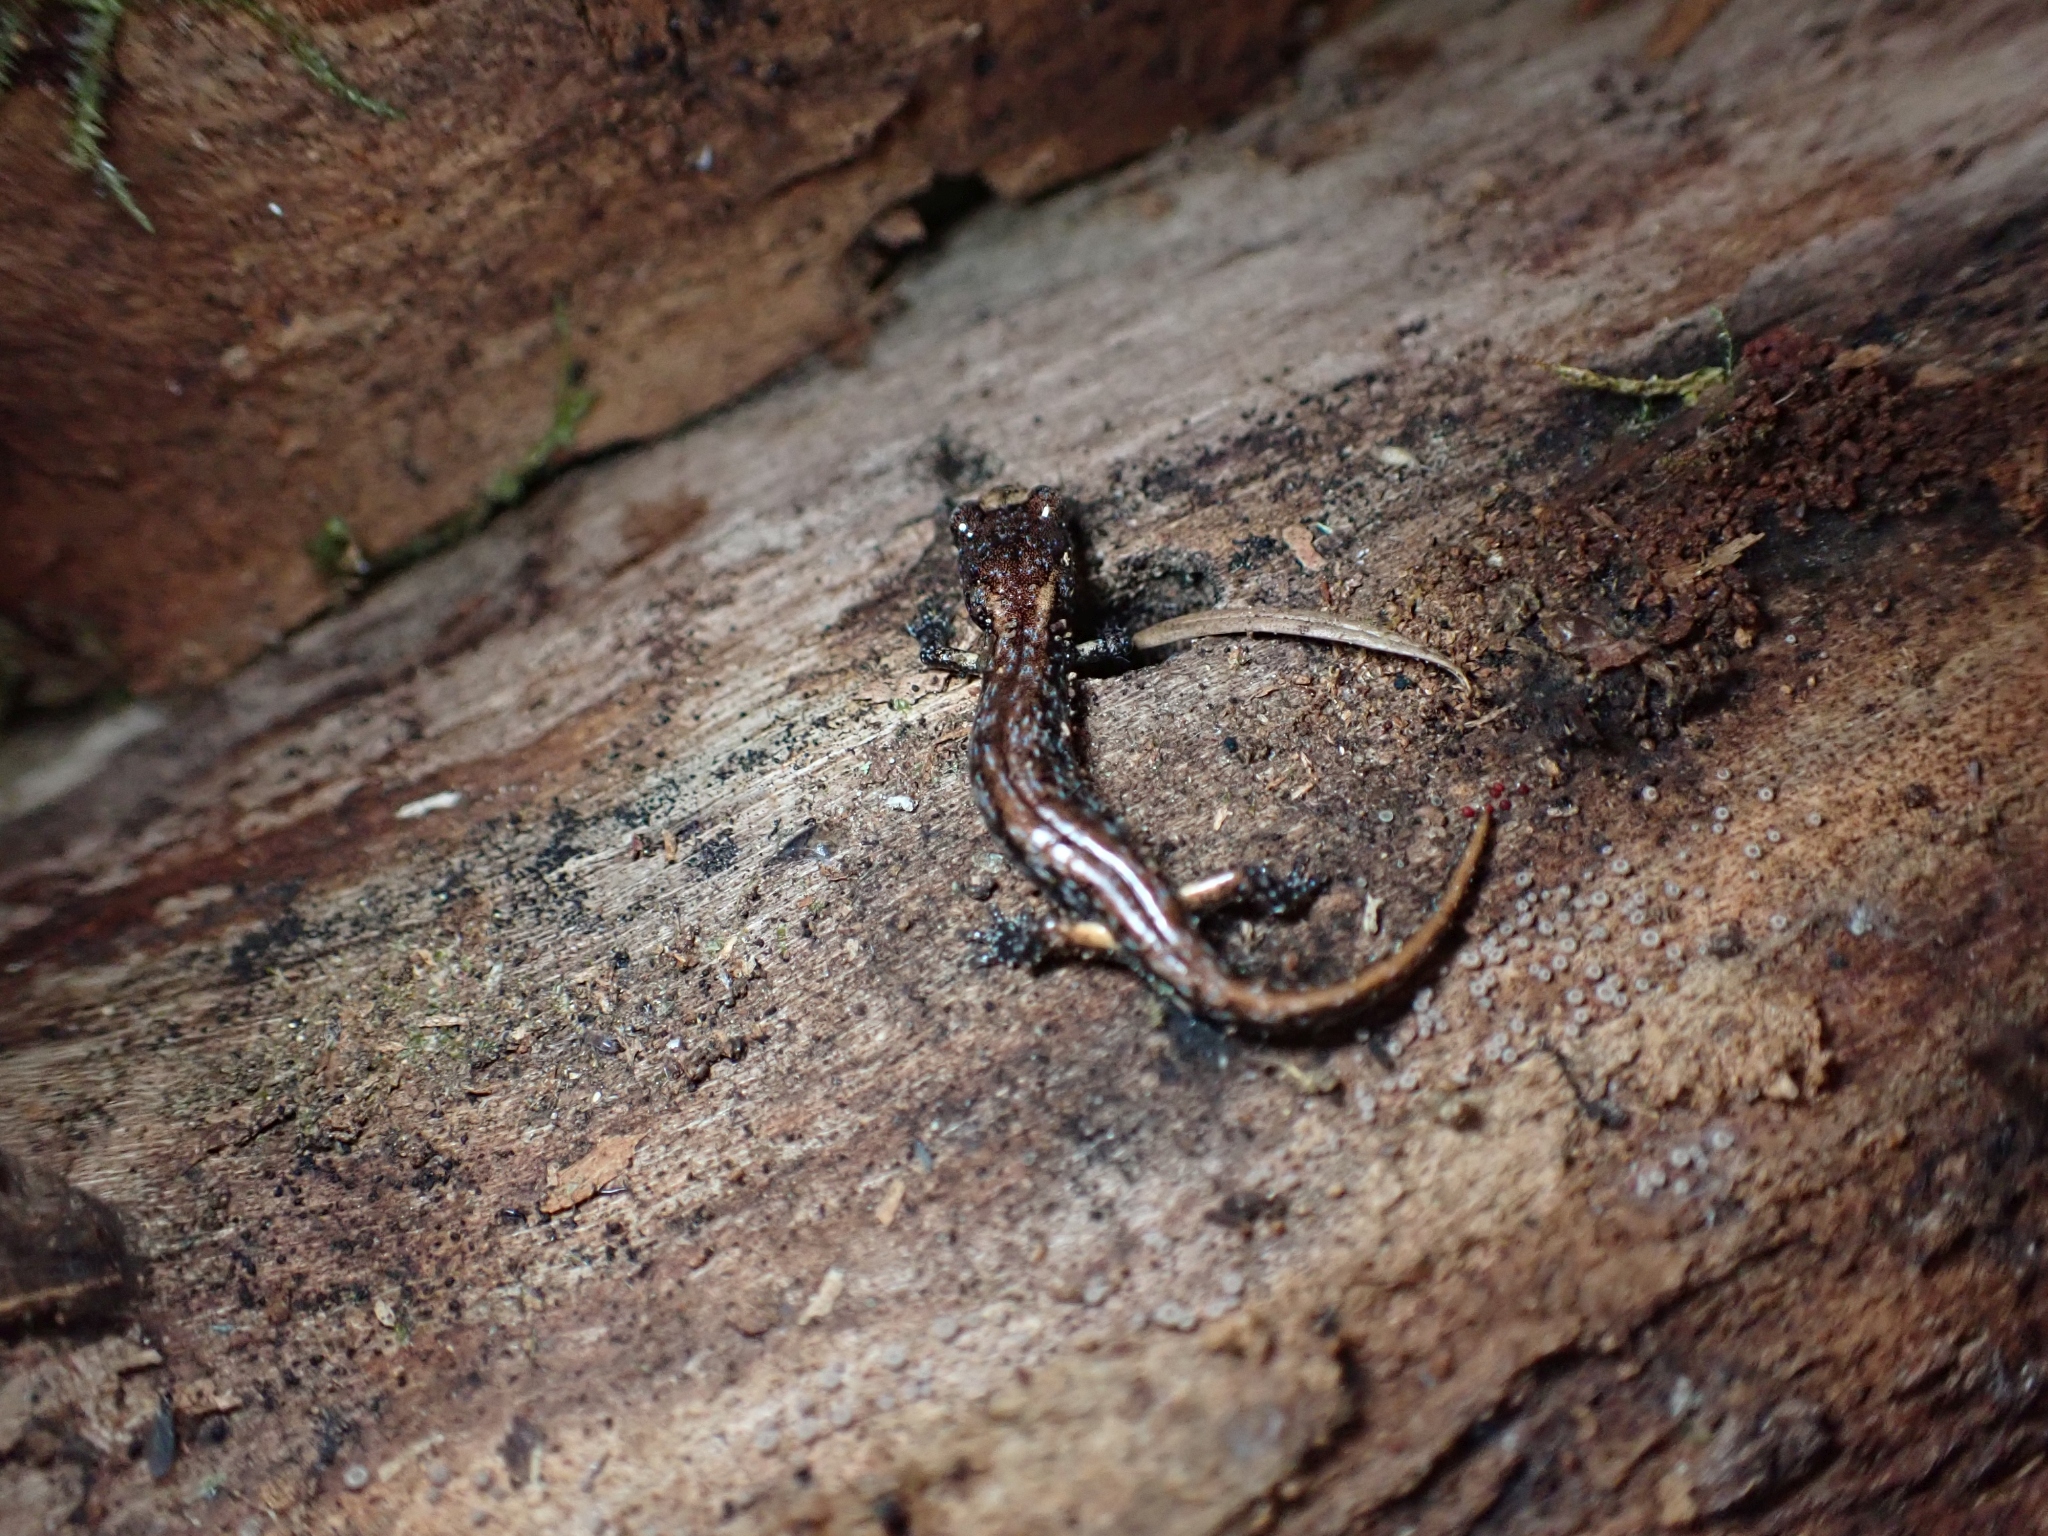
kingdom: Animalia
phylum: Chordata
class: Amphibia
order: Caudata
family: Plethodontidae
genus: Aneides
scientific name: Aneides vagrans
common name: Wandering salamander
